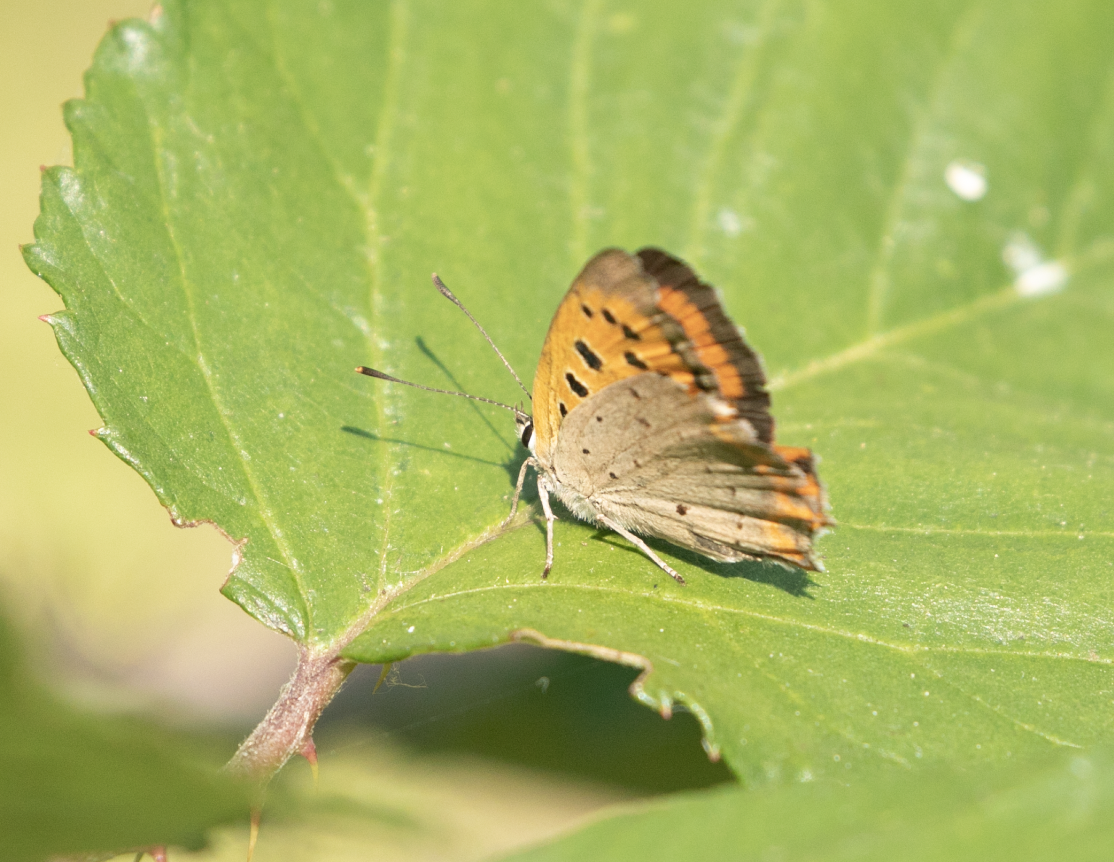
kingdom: Animalia
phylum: Arthropoda
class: Insecta
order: Lepidoptera
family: Lycaenidae
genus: Lycaena
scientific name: Lycaena phlaeas
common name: Small copper
